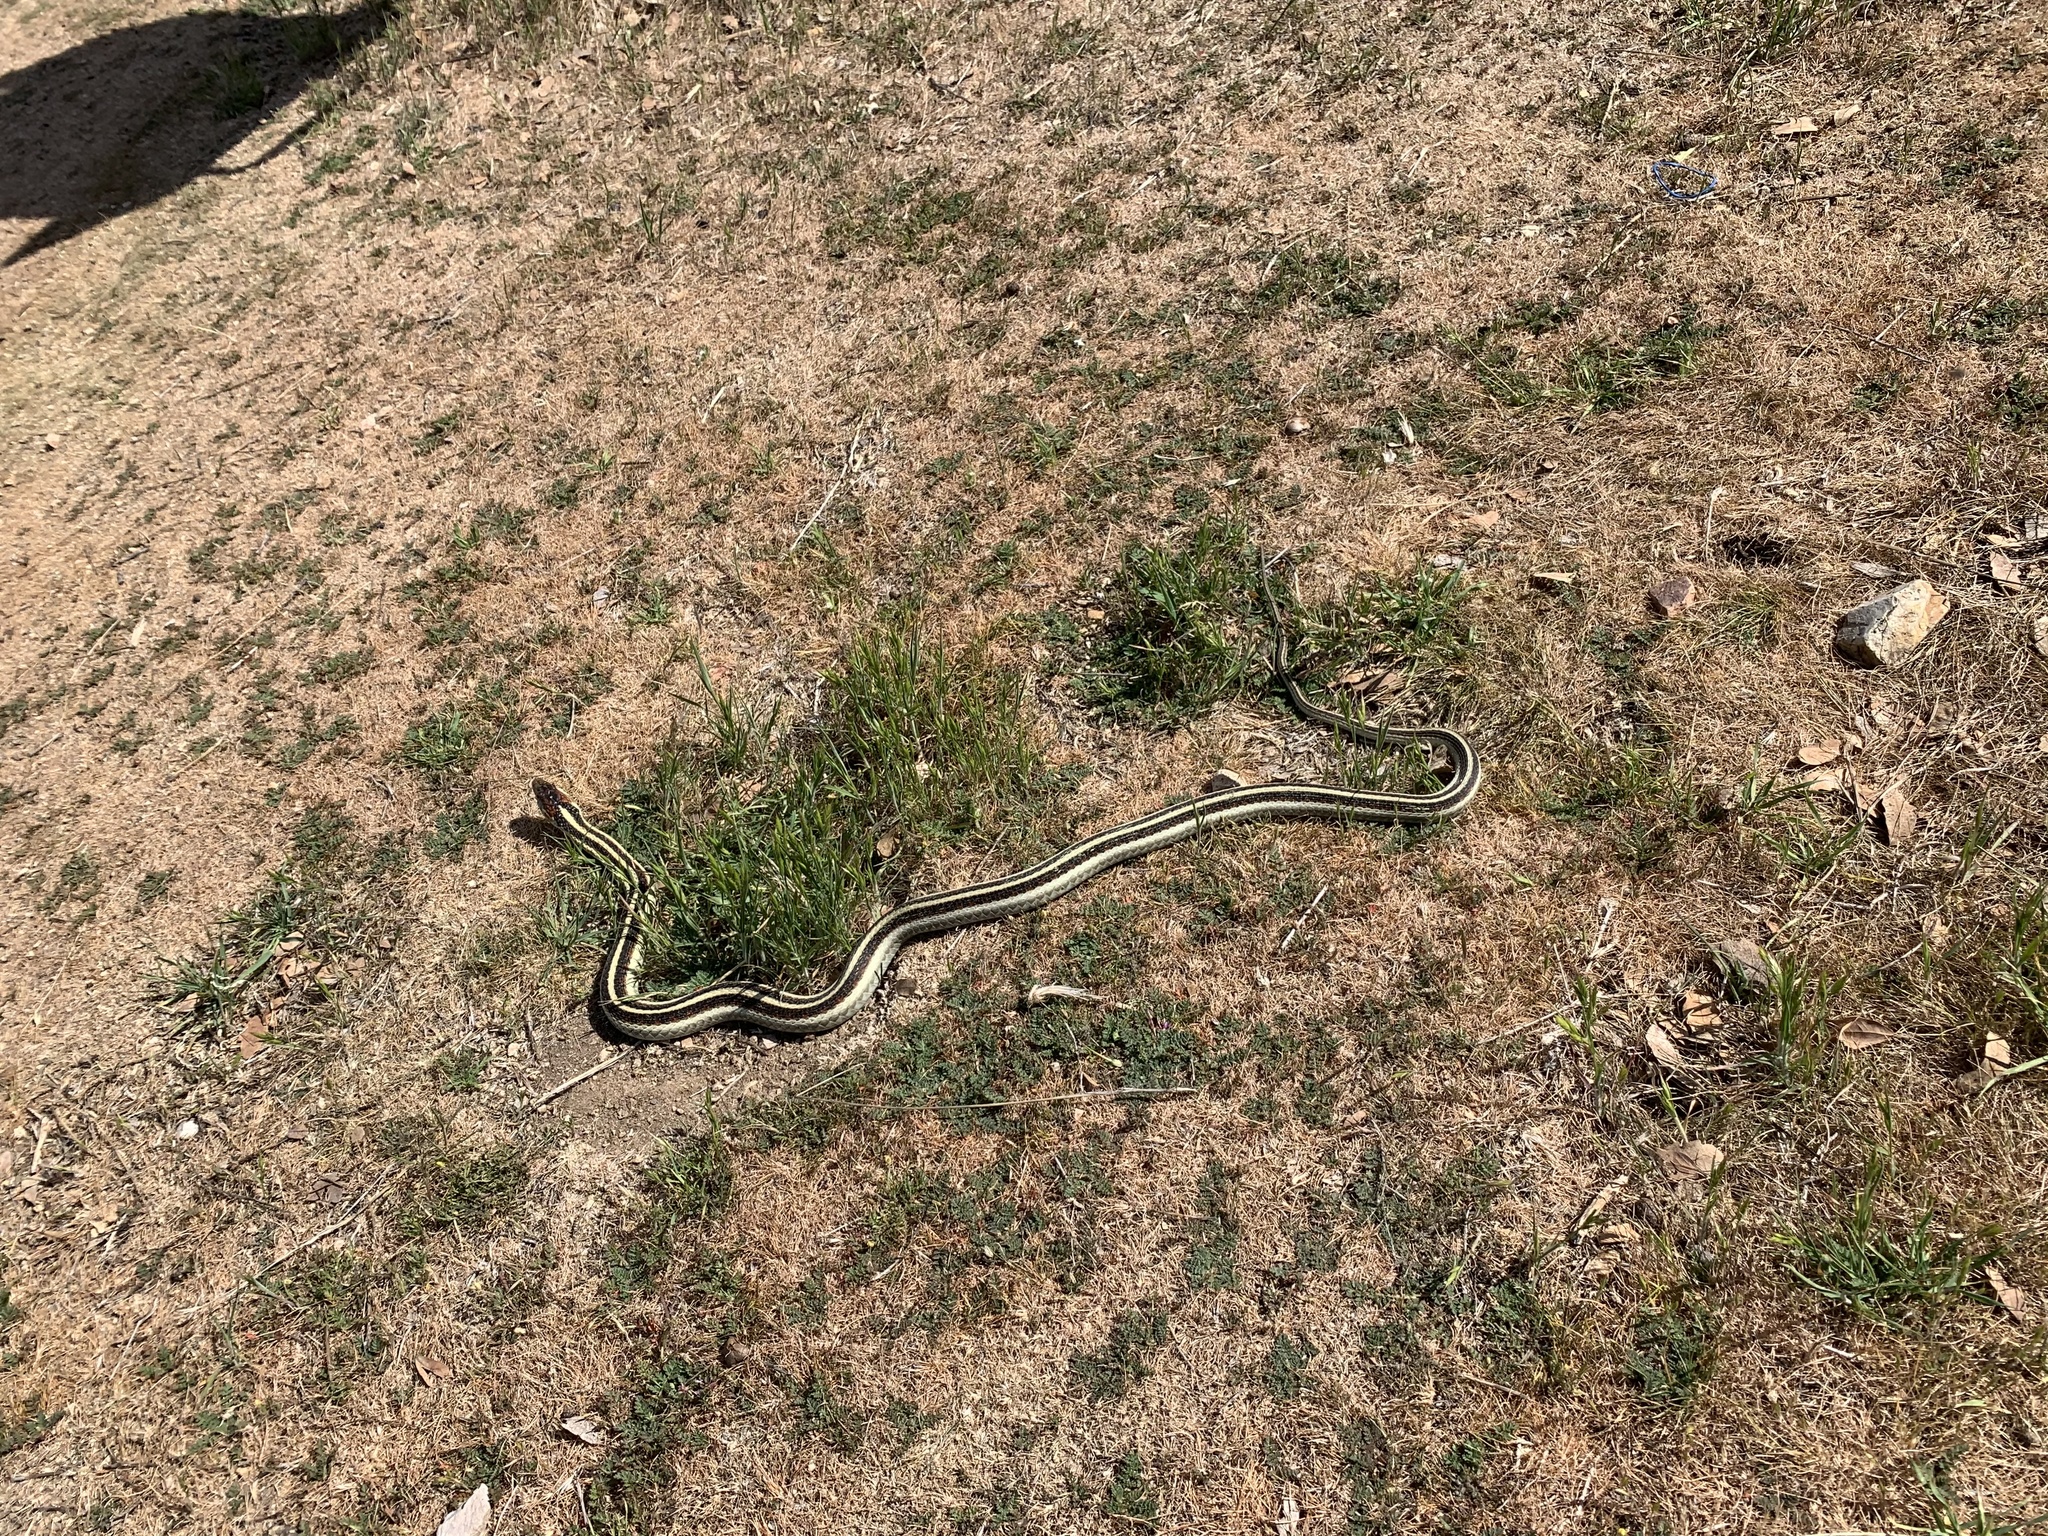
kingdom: Animalia
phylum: Chordata
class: Squamata
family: Colubridae
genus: Thamnophis
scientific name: Thamnophis sirtalis
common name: Common garter snake
